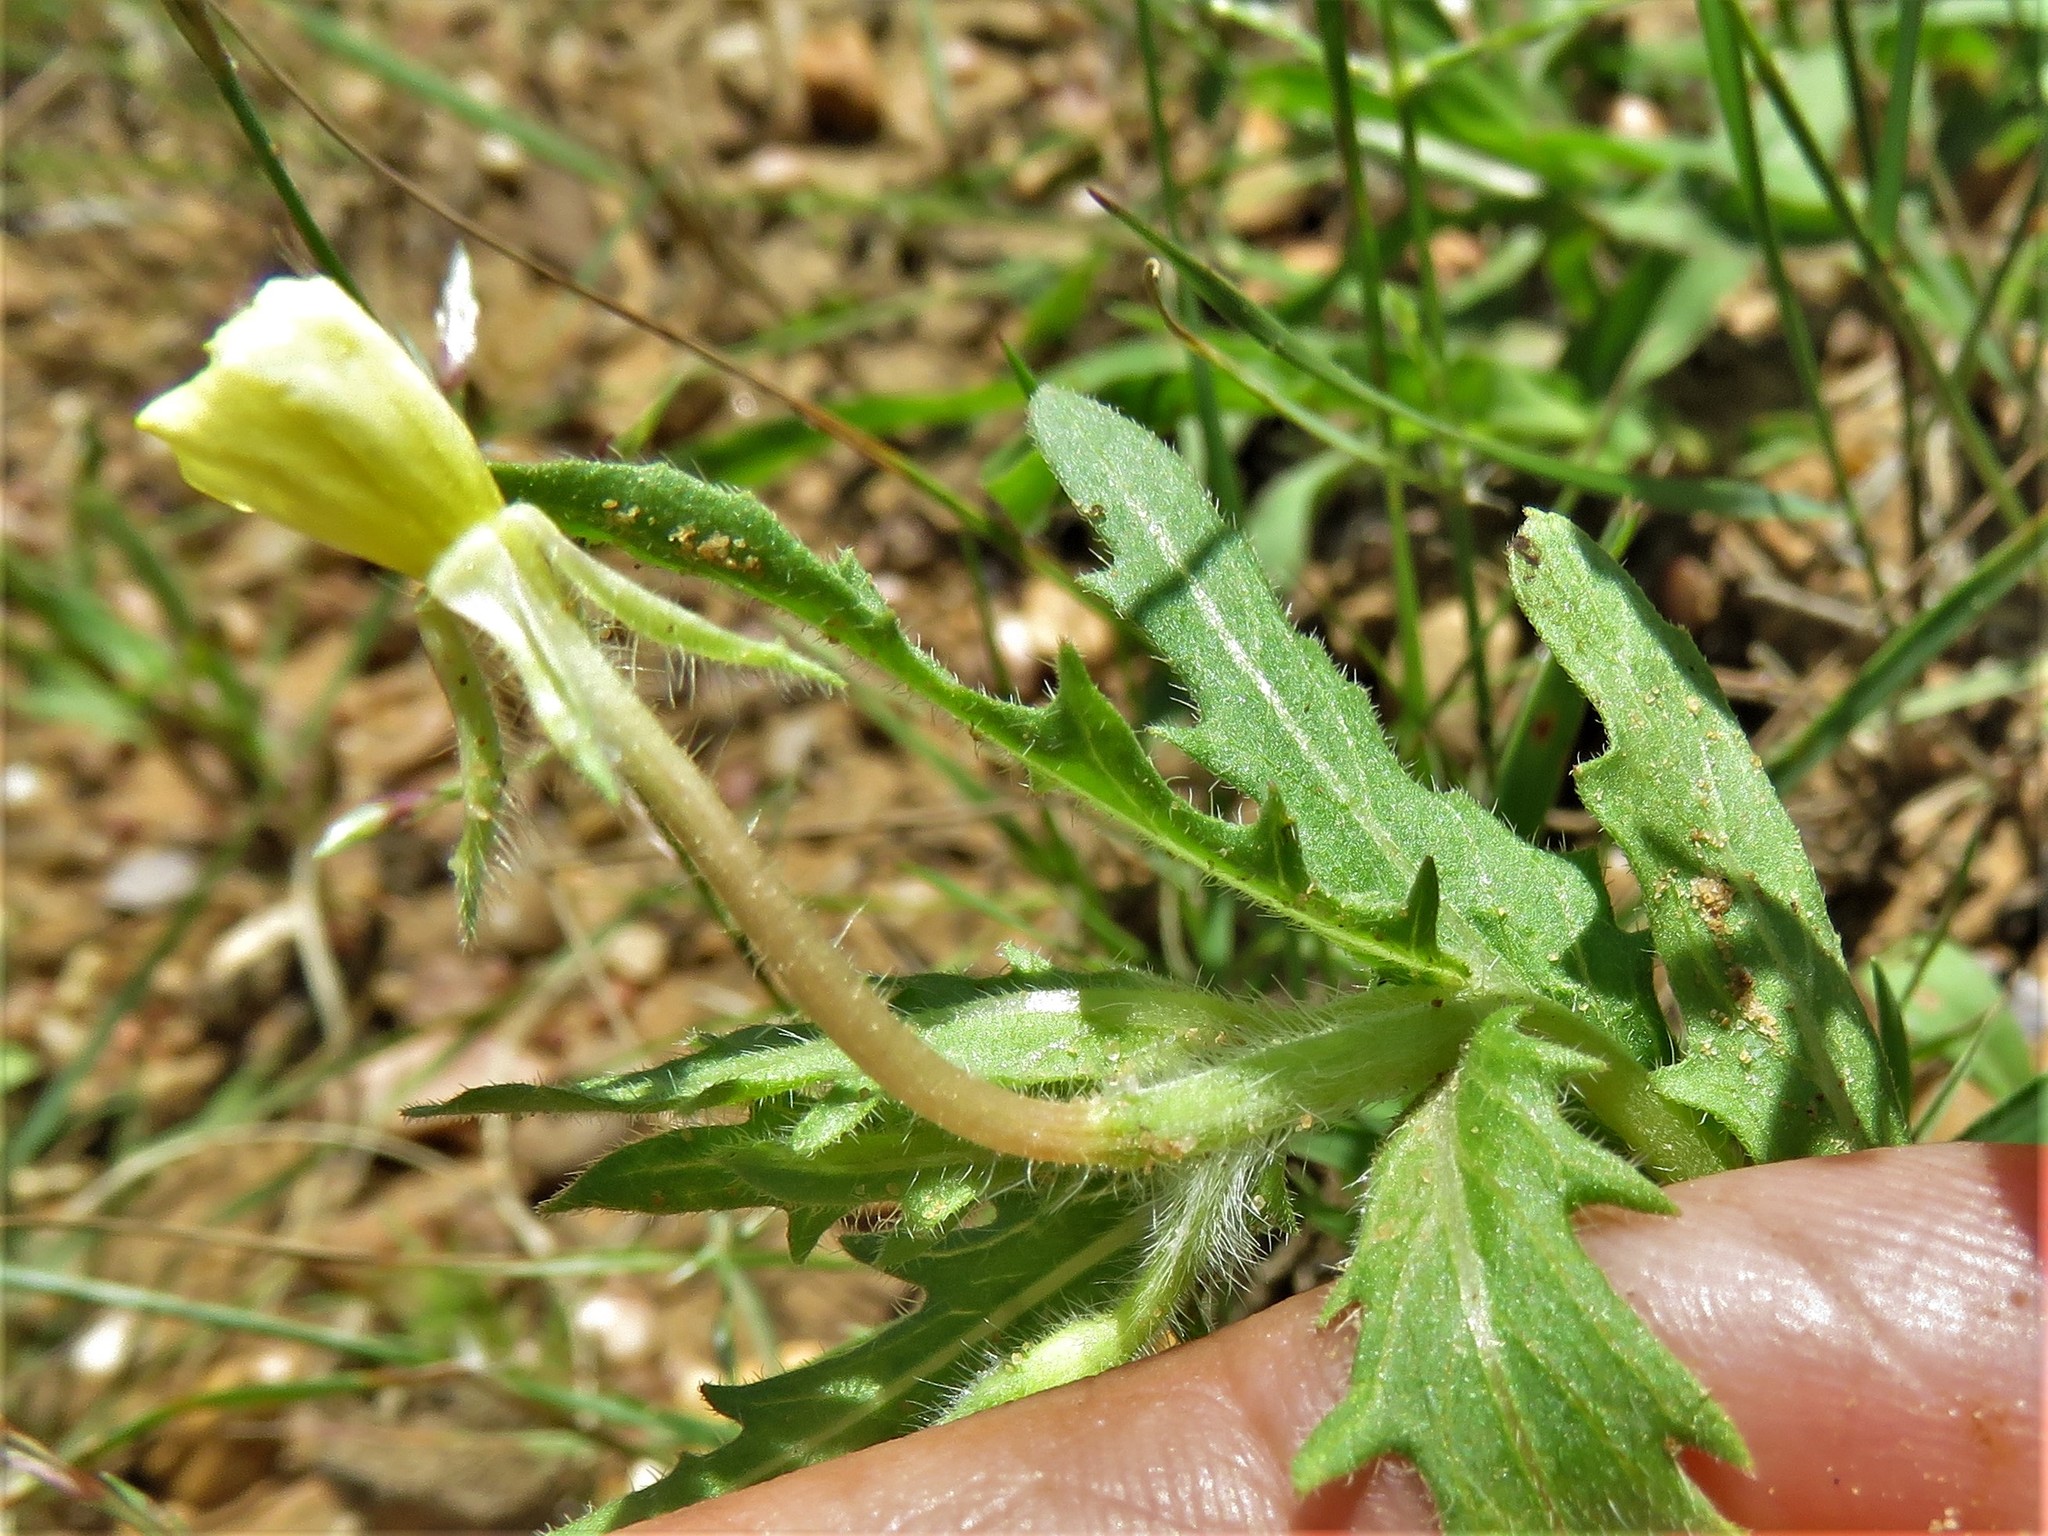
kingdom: Plantae
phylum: Tracheophyta
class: Magnoliopsida
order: Myrtales
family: Onagraceae
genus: Oenothera
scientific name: Oenothera laciniata
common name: Cut-leaved evening-primrose
